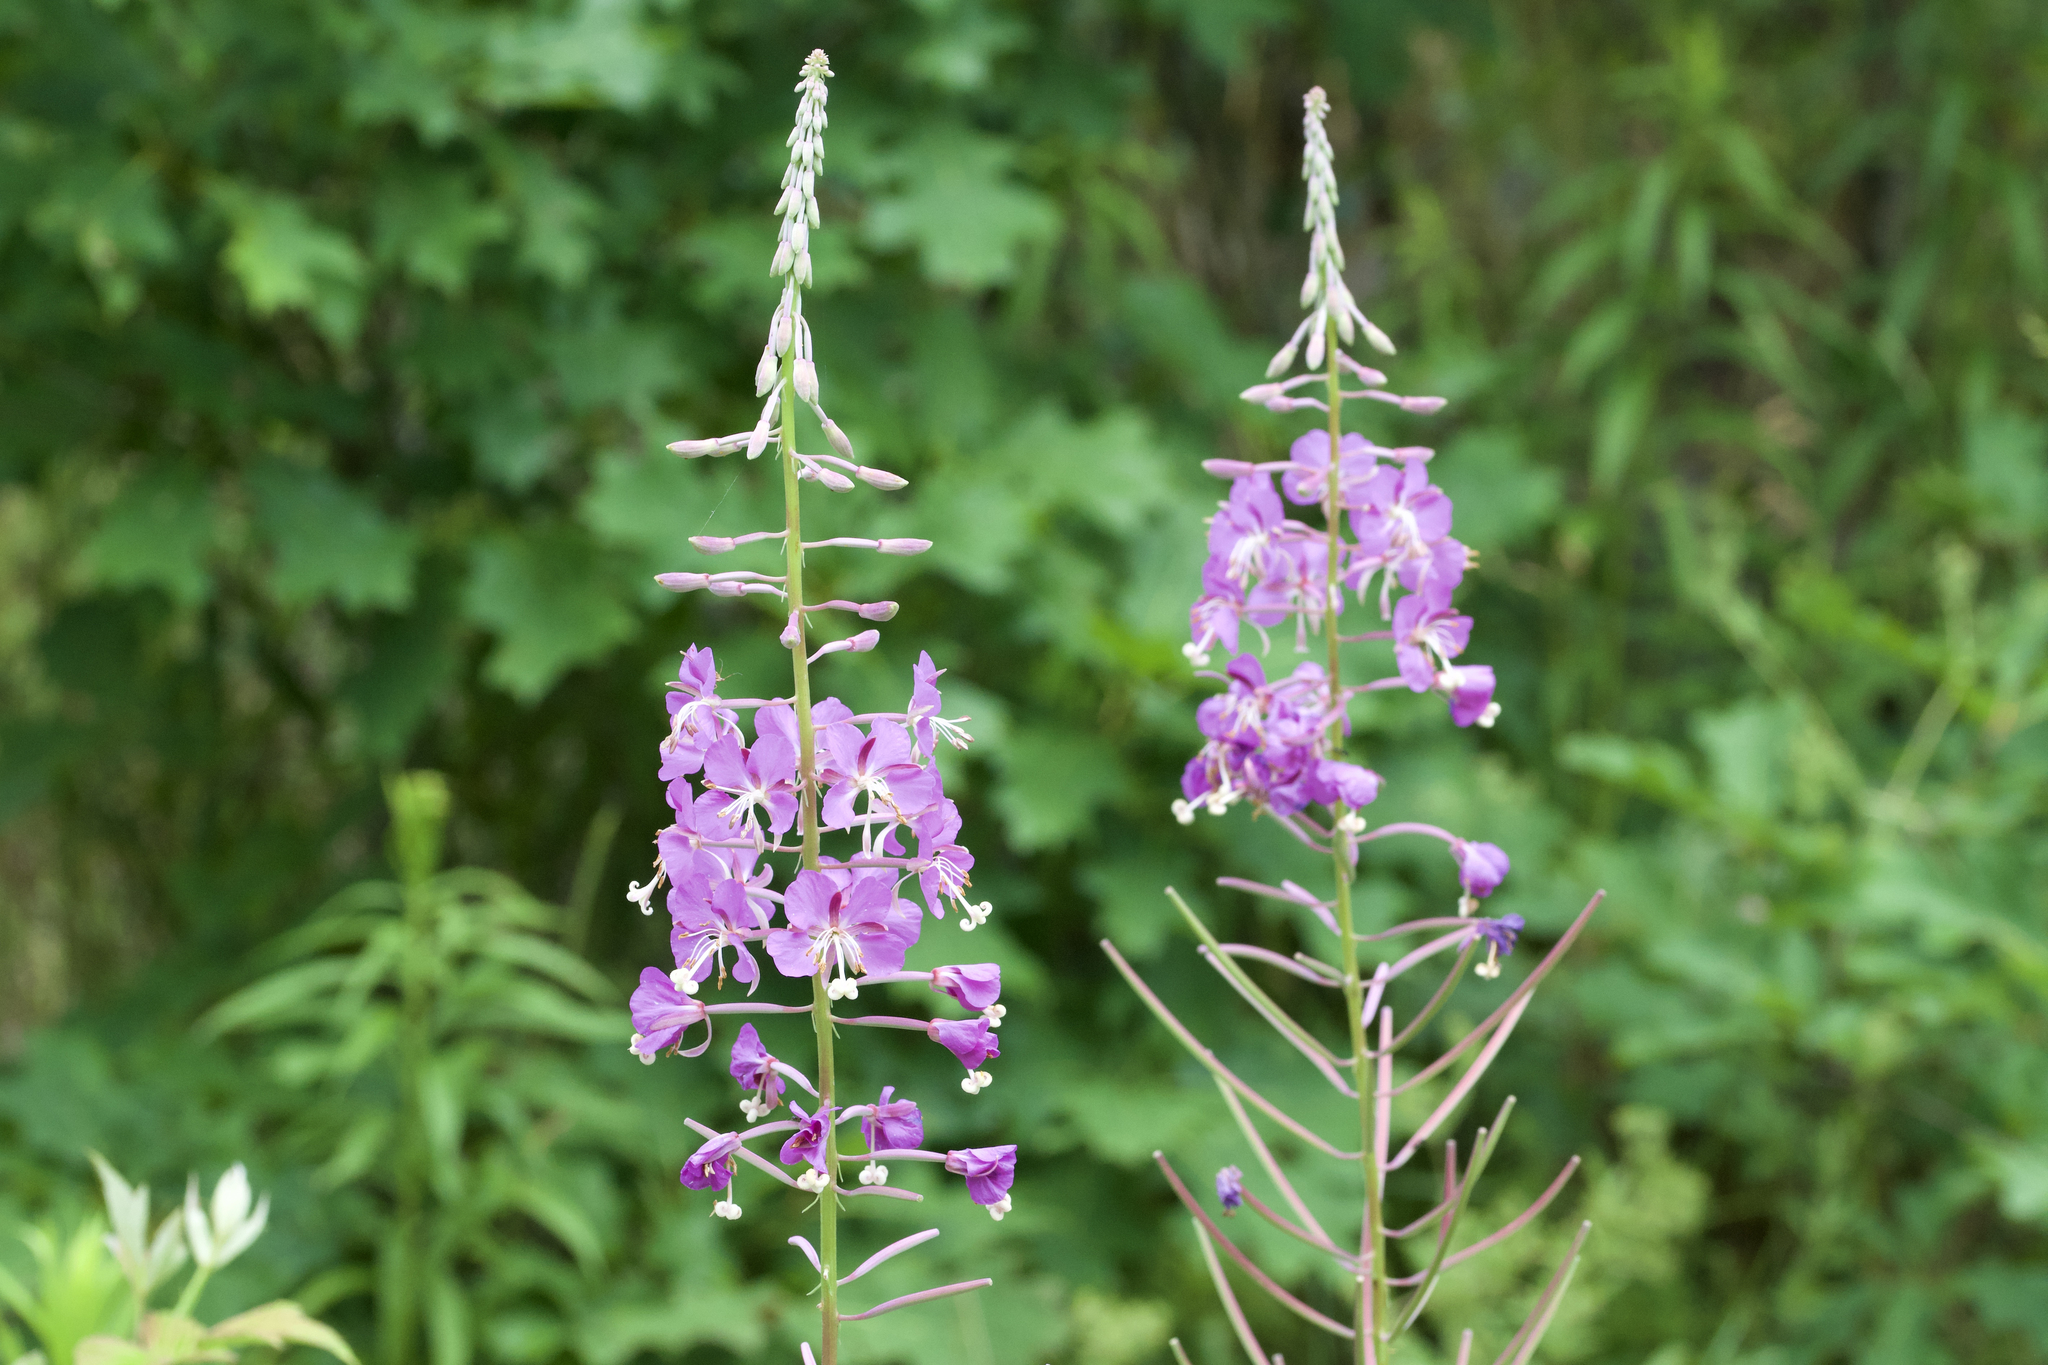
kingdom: Plantae
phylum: Tracheophyta
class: Magnoliopsida
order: Myrtales
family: Onagraceae
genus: Chamaenerion
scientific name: Chamaenerion angustifolium
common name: Fireweed
